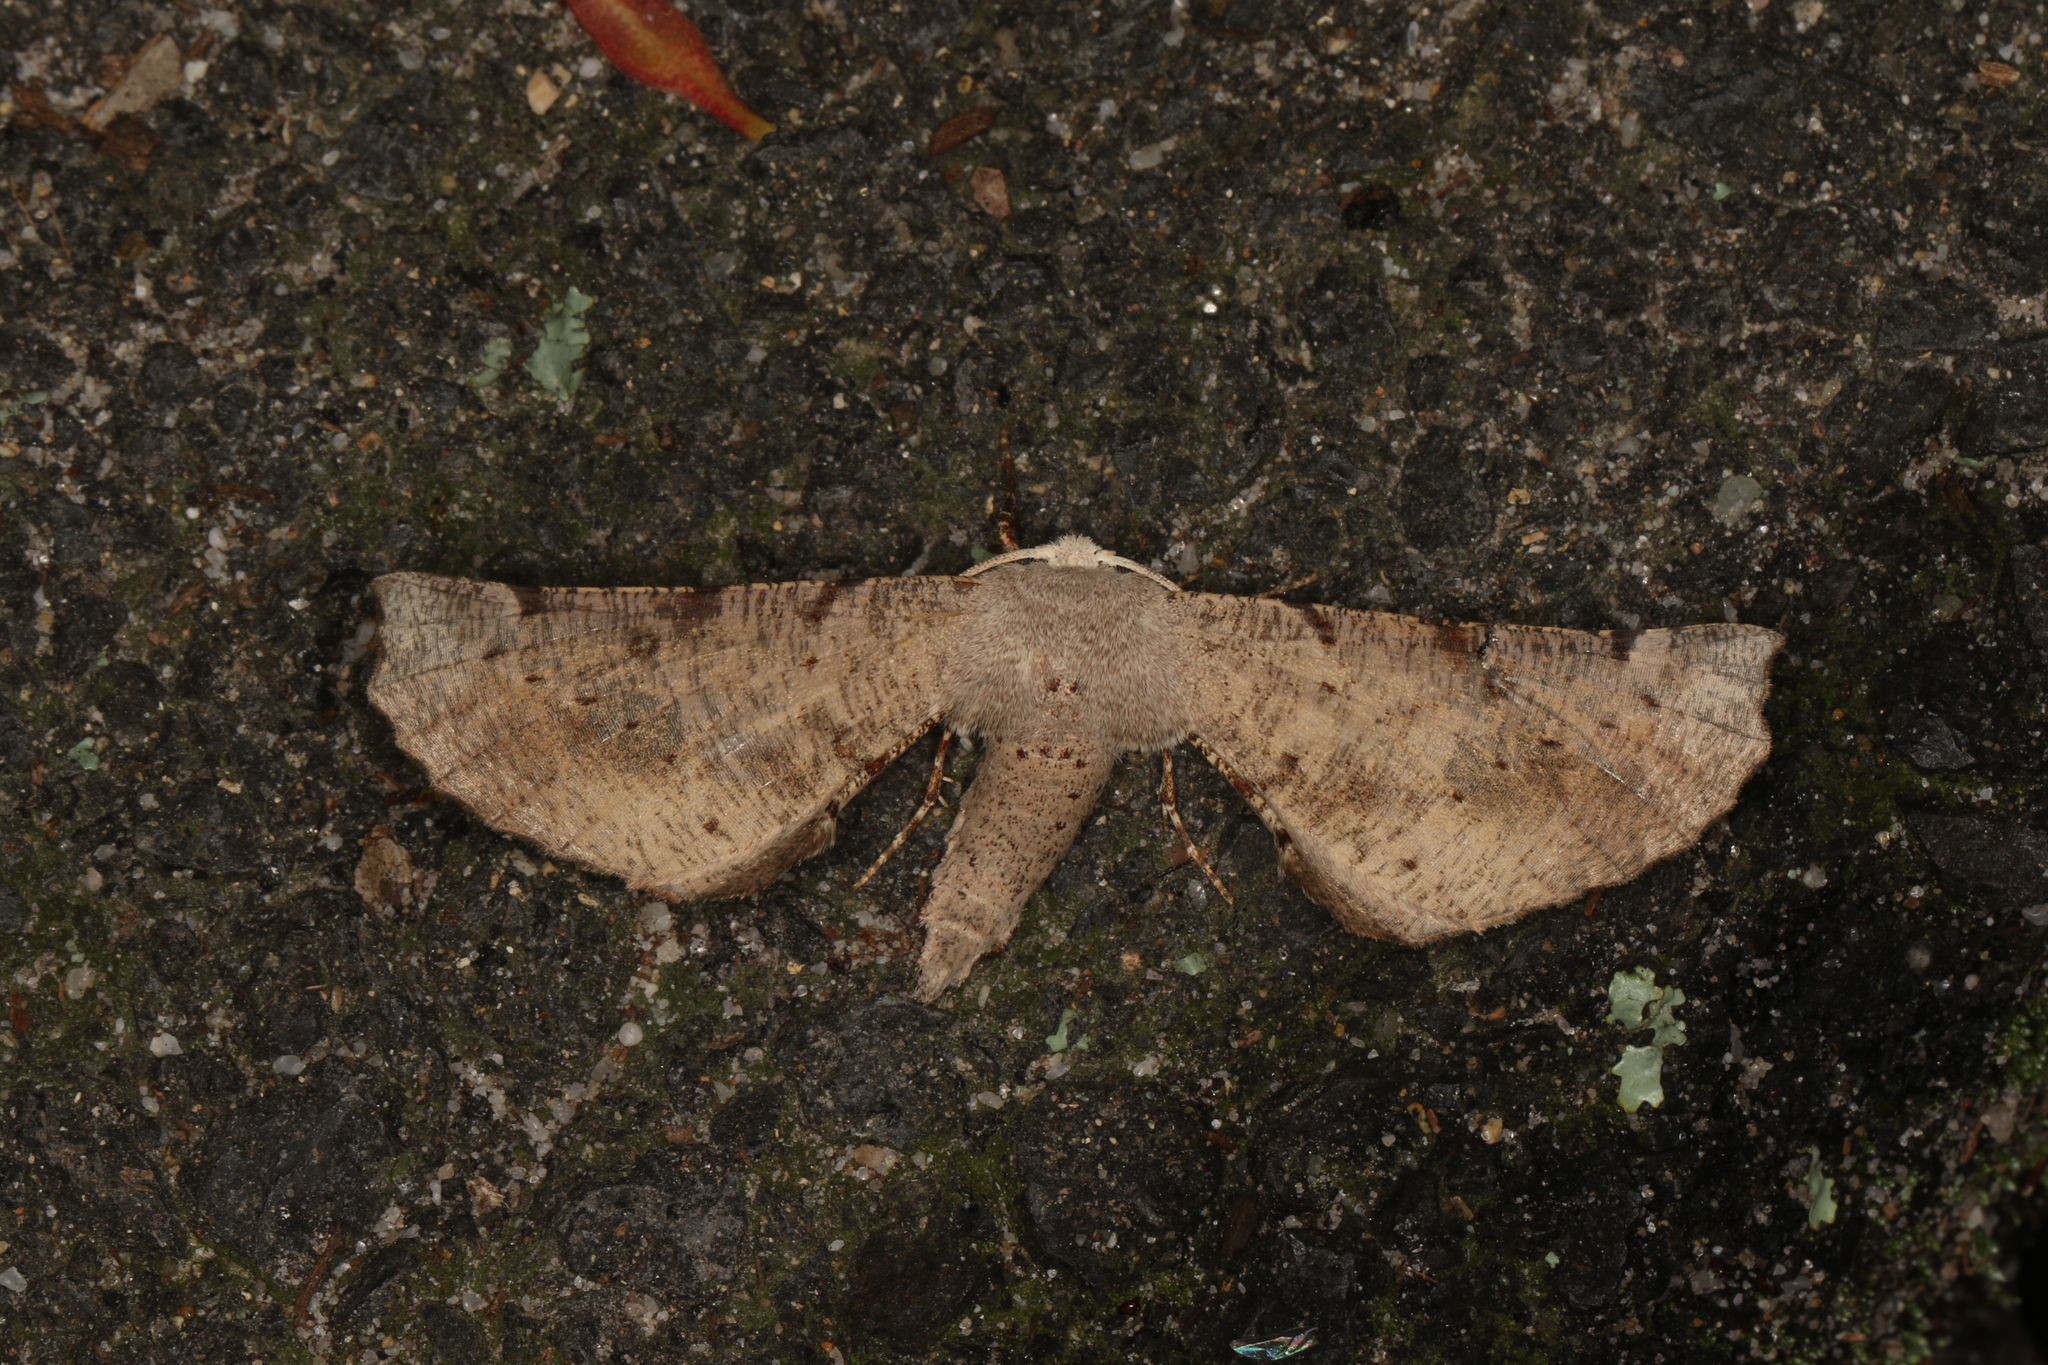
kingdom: Animalia
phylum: Arthropoda
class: Insecta
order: Lepidoptera
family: Geometridae
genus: Circopetes
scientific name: Circopetes obtusata
